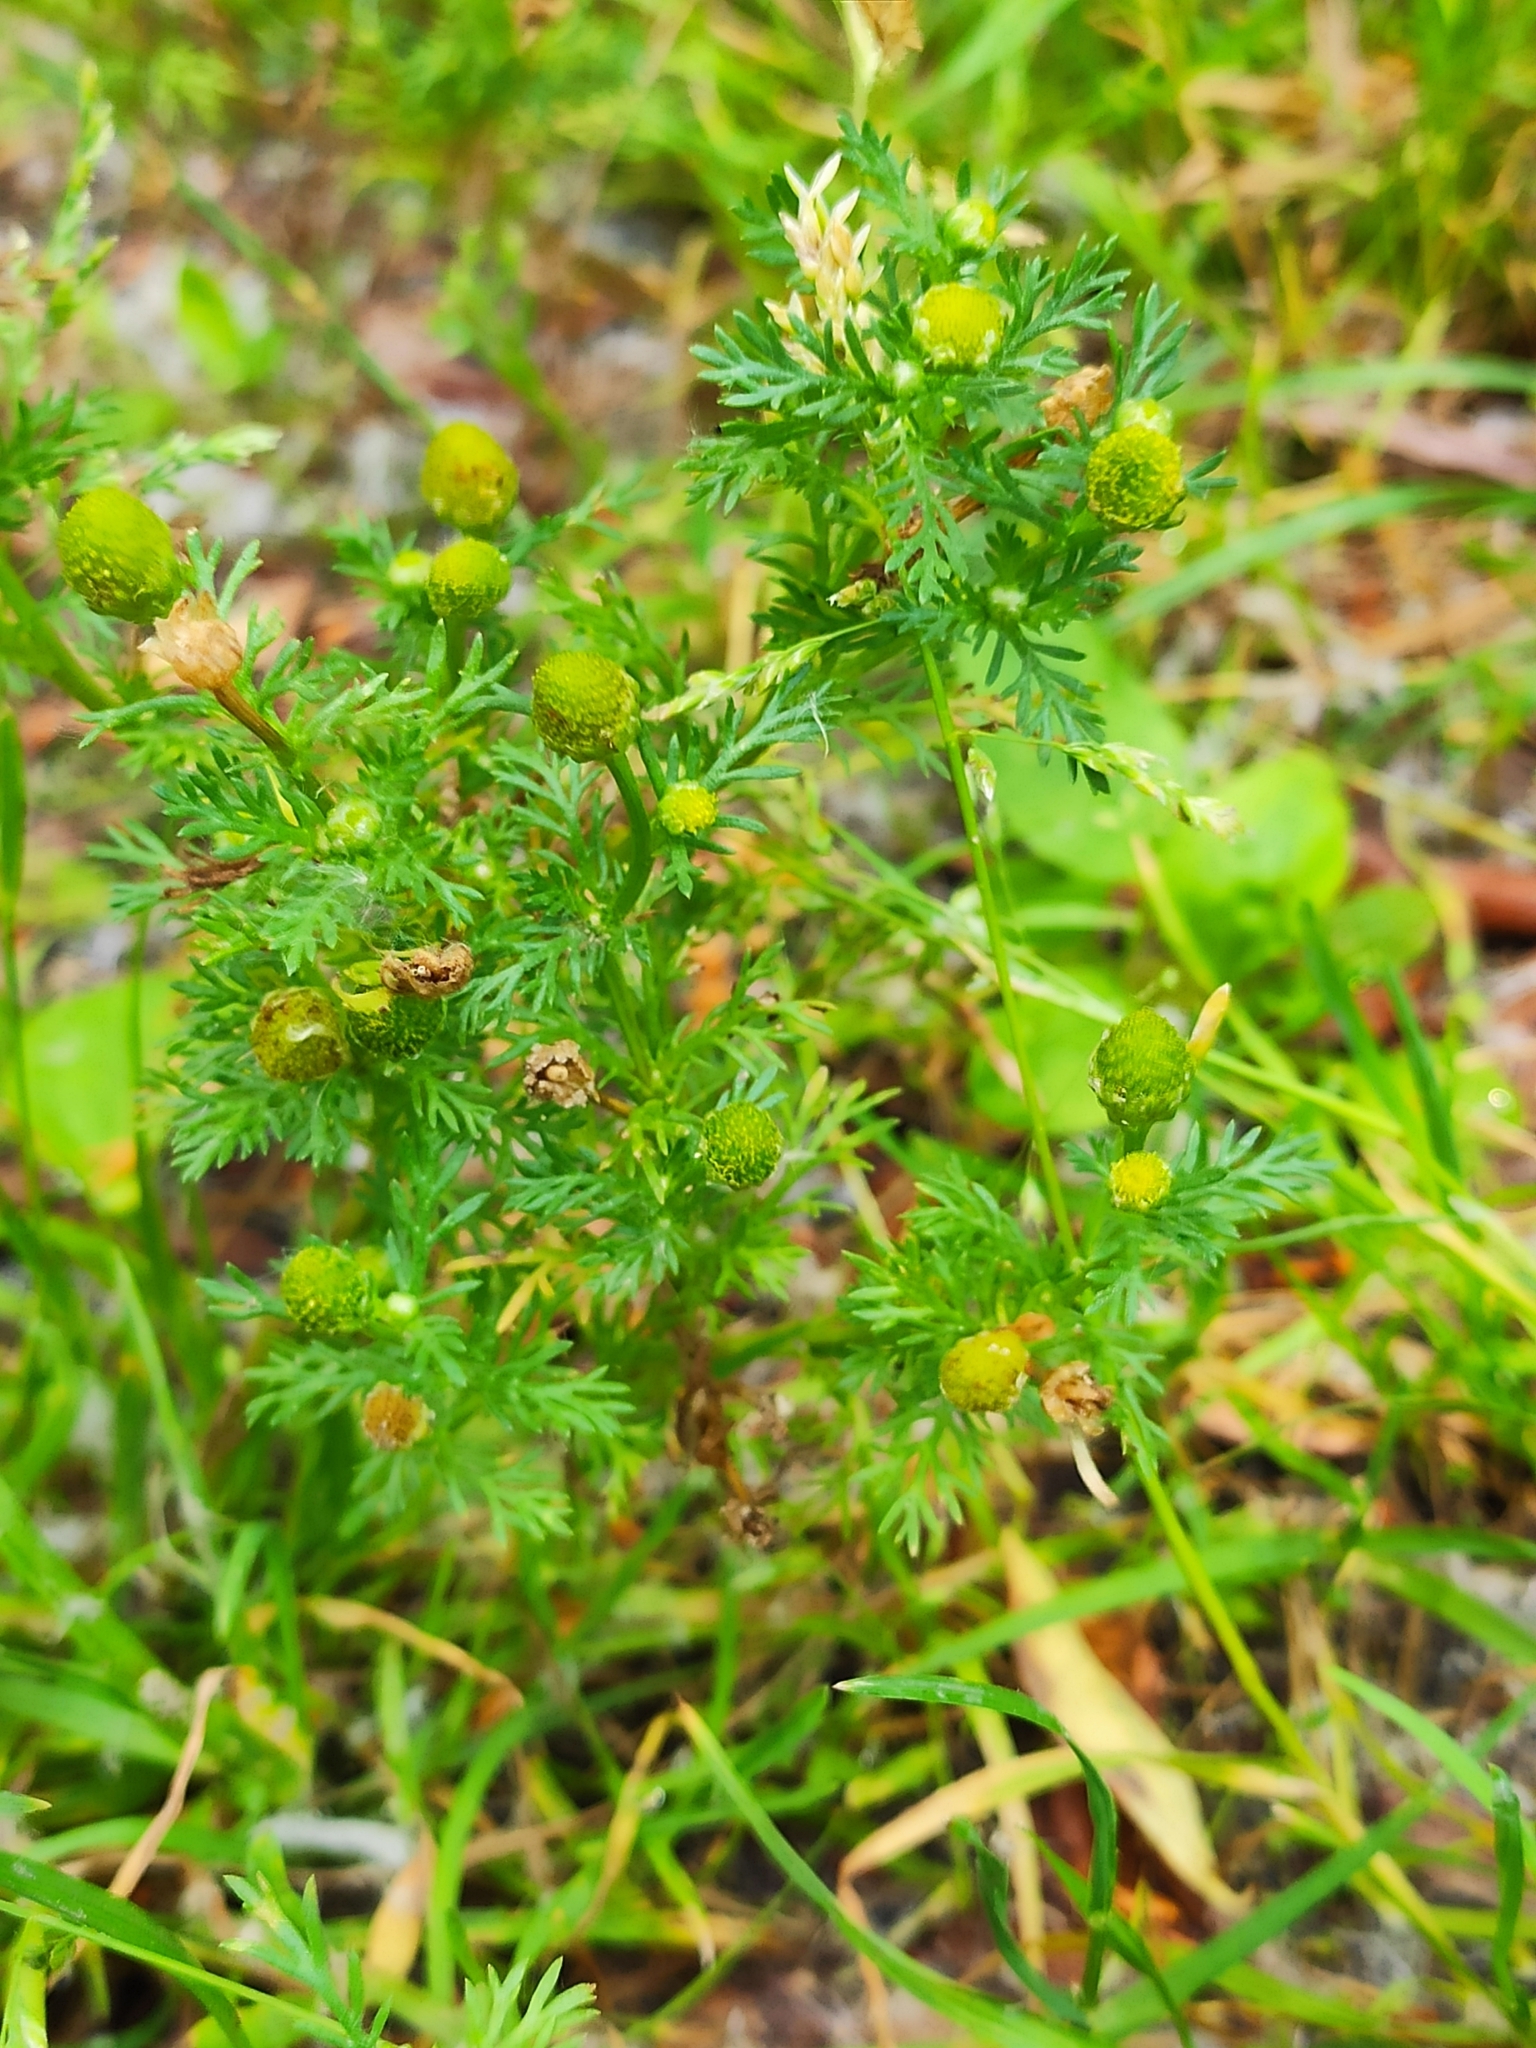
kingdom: Plantae
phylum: Tracheophyta
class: Magnoliopsida
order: Asterales
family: Asteraceae
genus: Matricaria
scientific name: Matricaria discoidea
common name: Disc mayweed
